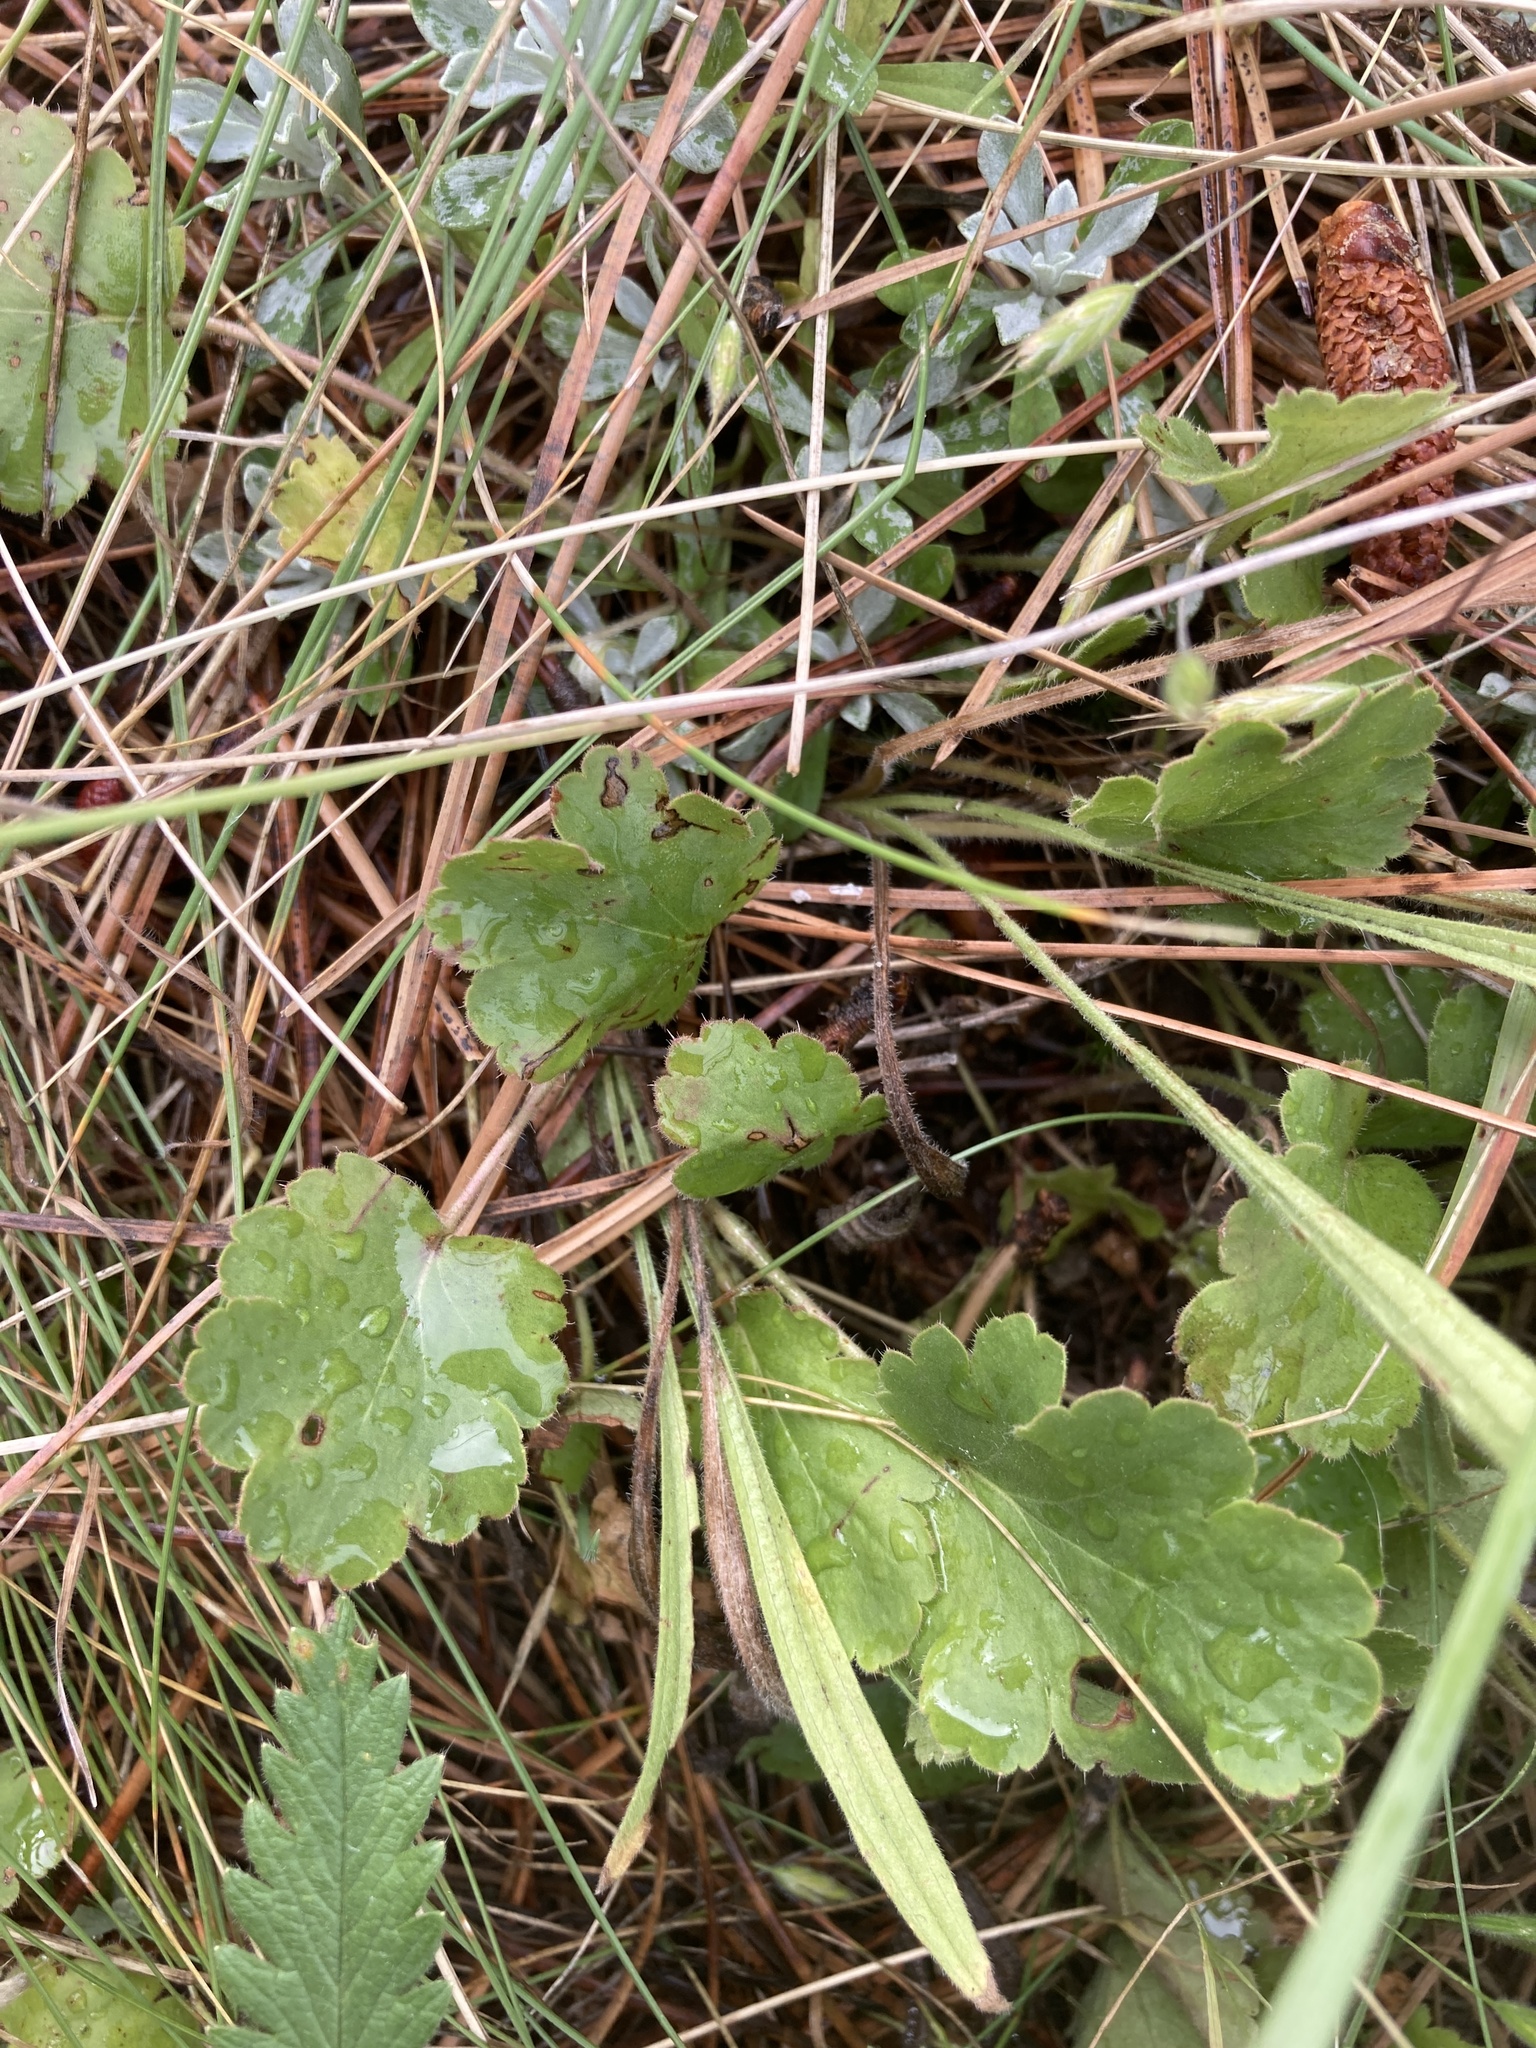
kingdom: Plantae
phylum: Tracheophyta
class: Magnoliopsida
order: Saxifragales
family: Saxifragaceae
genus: Heuchera
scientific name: Heuchera cylindrica
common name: Mat alumroot
